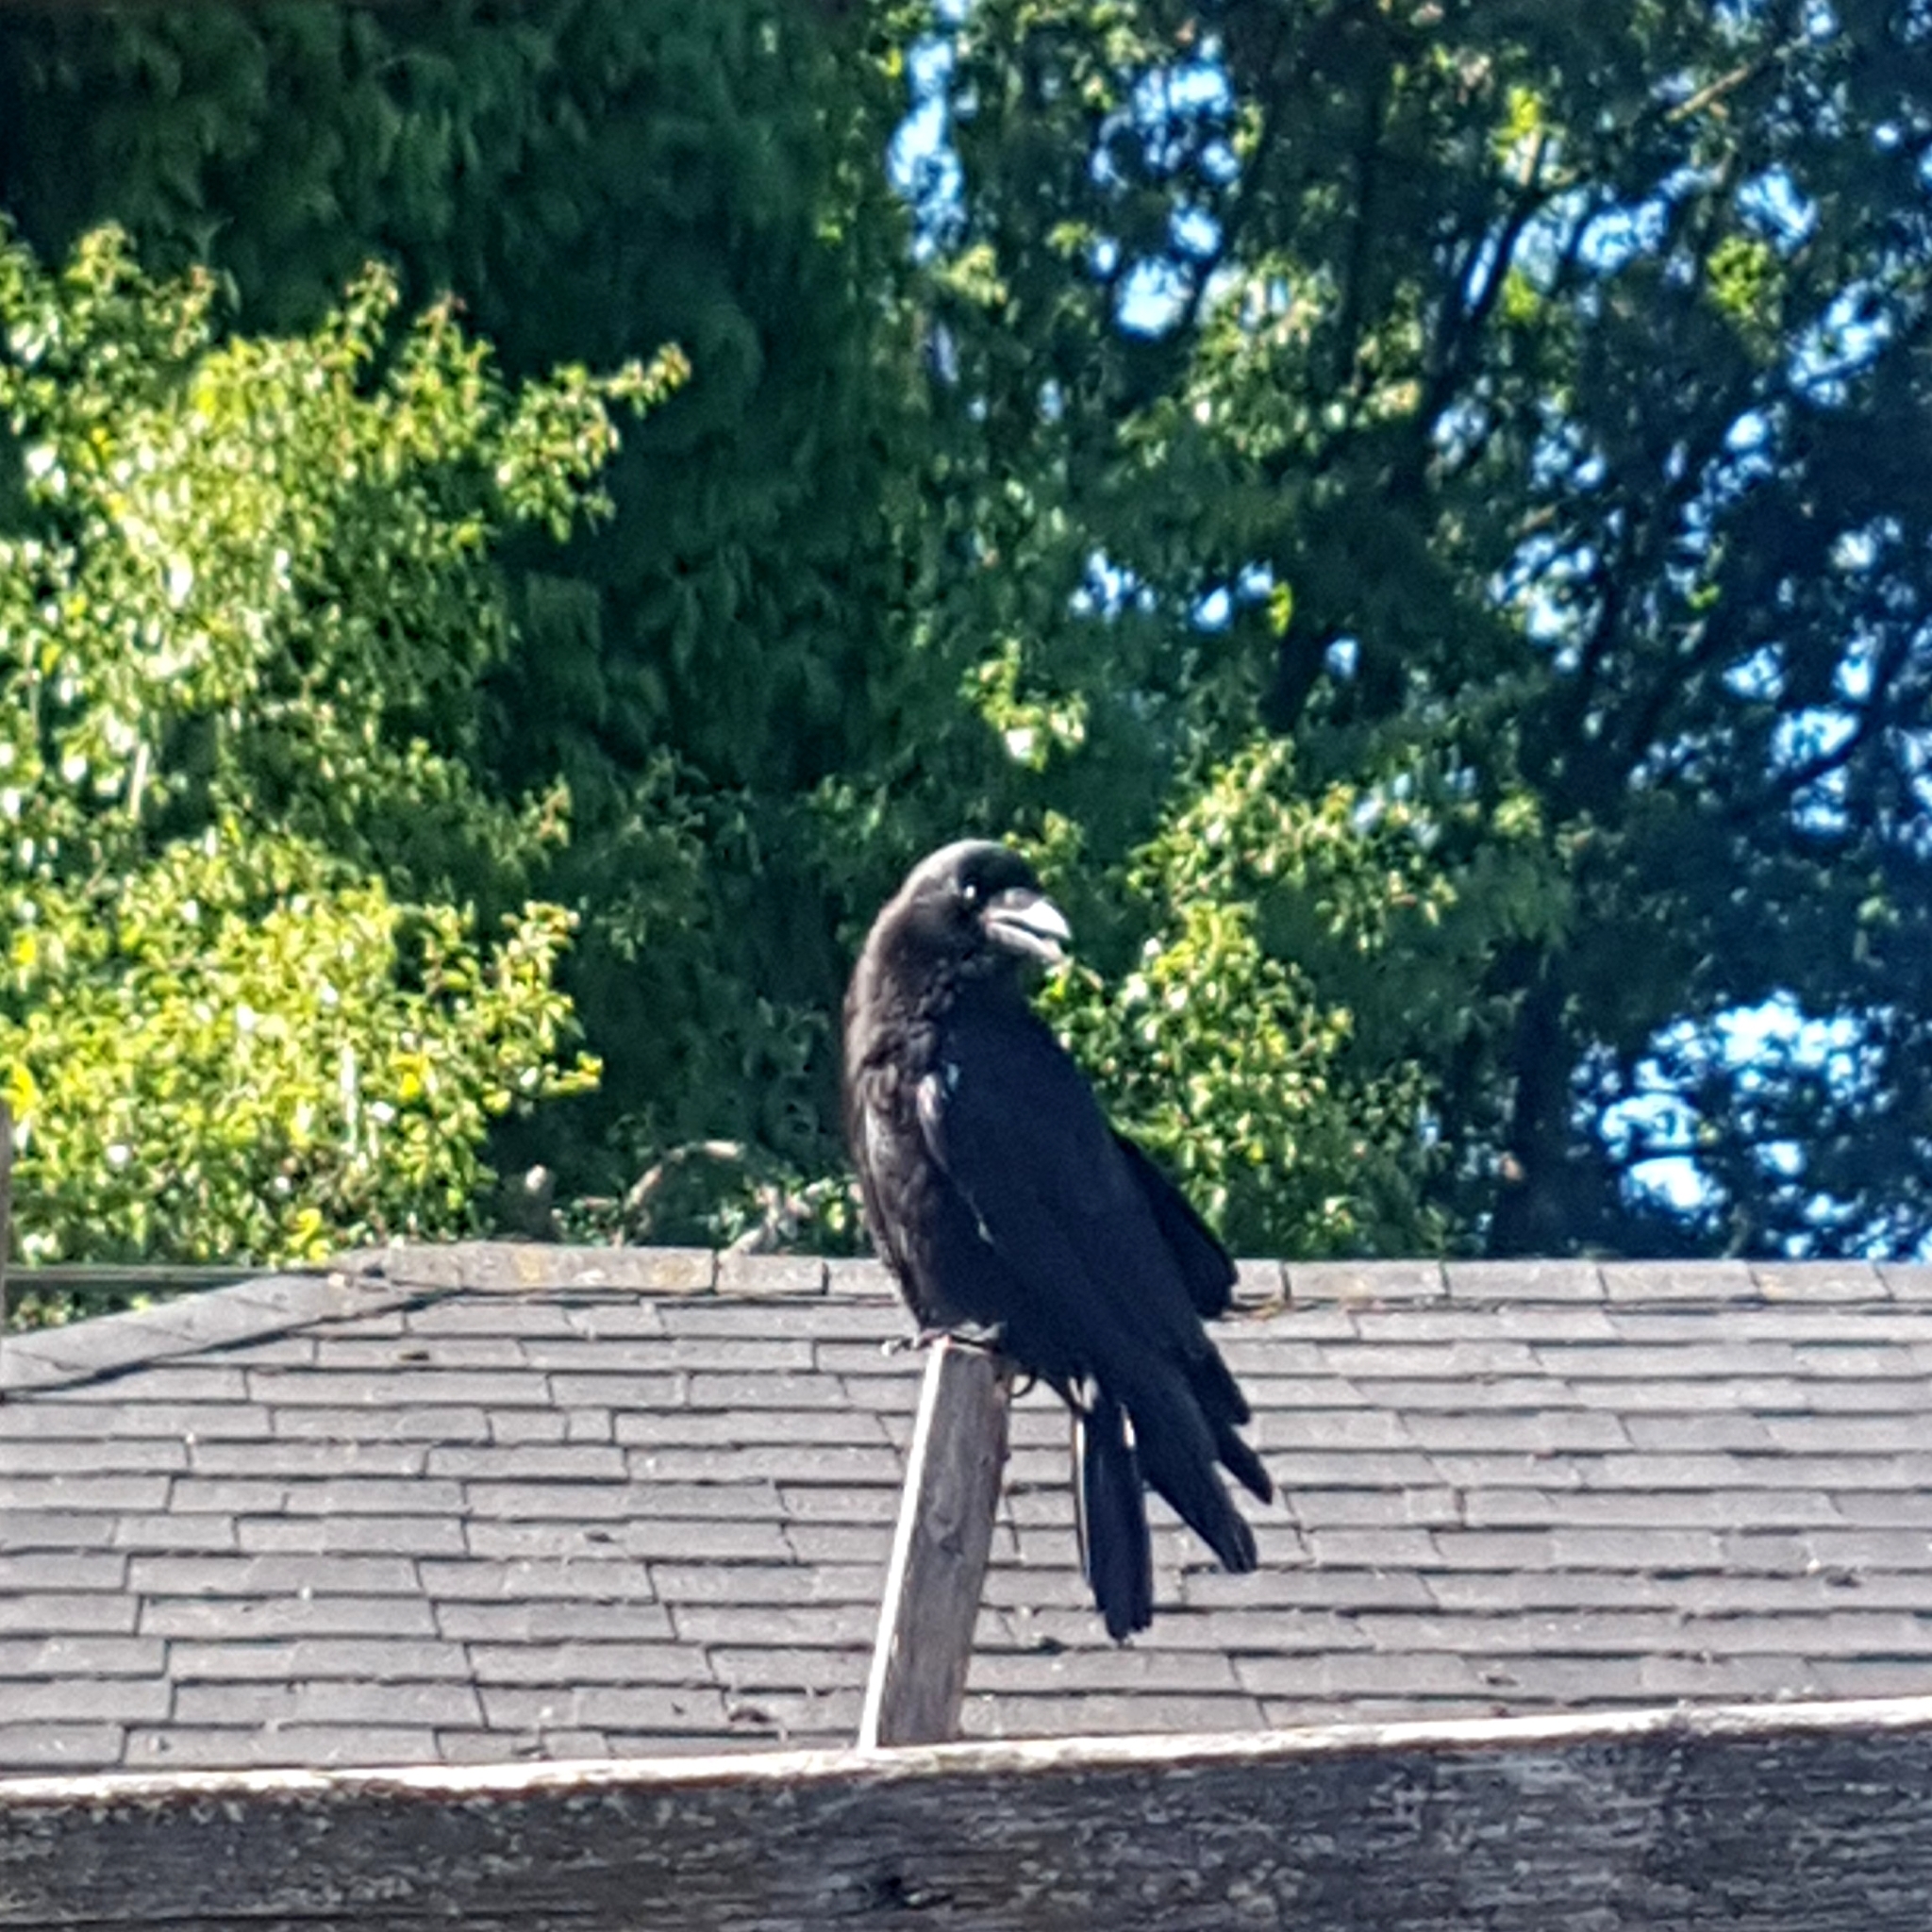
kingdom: Animalia
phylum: Chordata
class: Aves
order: Passeriformes
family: Corvidae
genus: Corvus
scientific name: Corvus brachyrhynchos
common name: American crow
